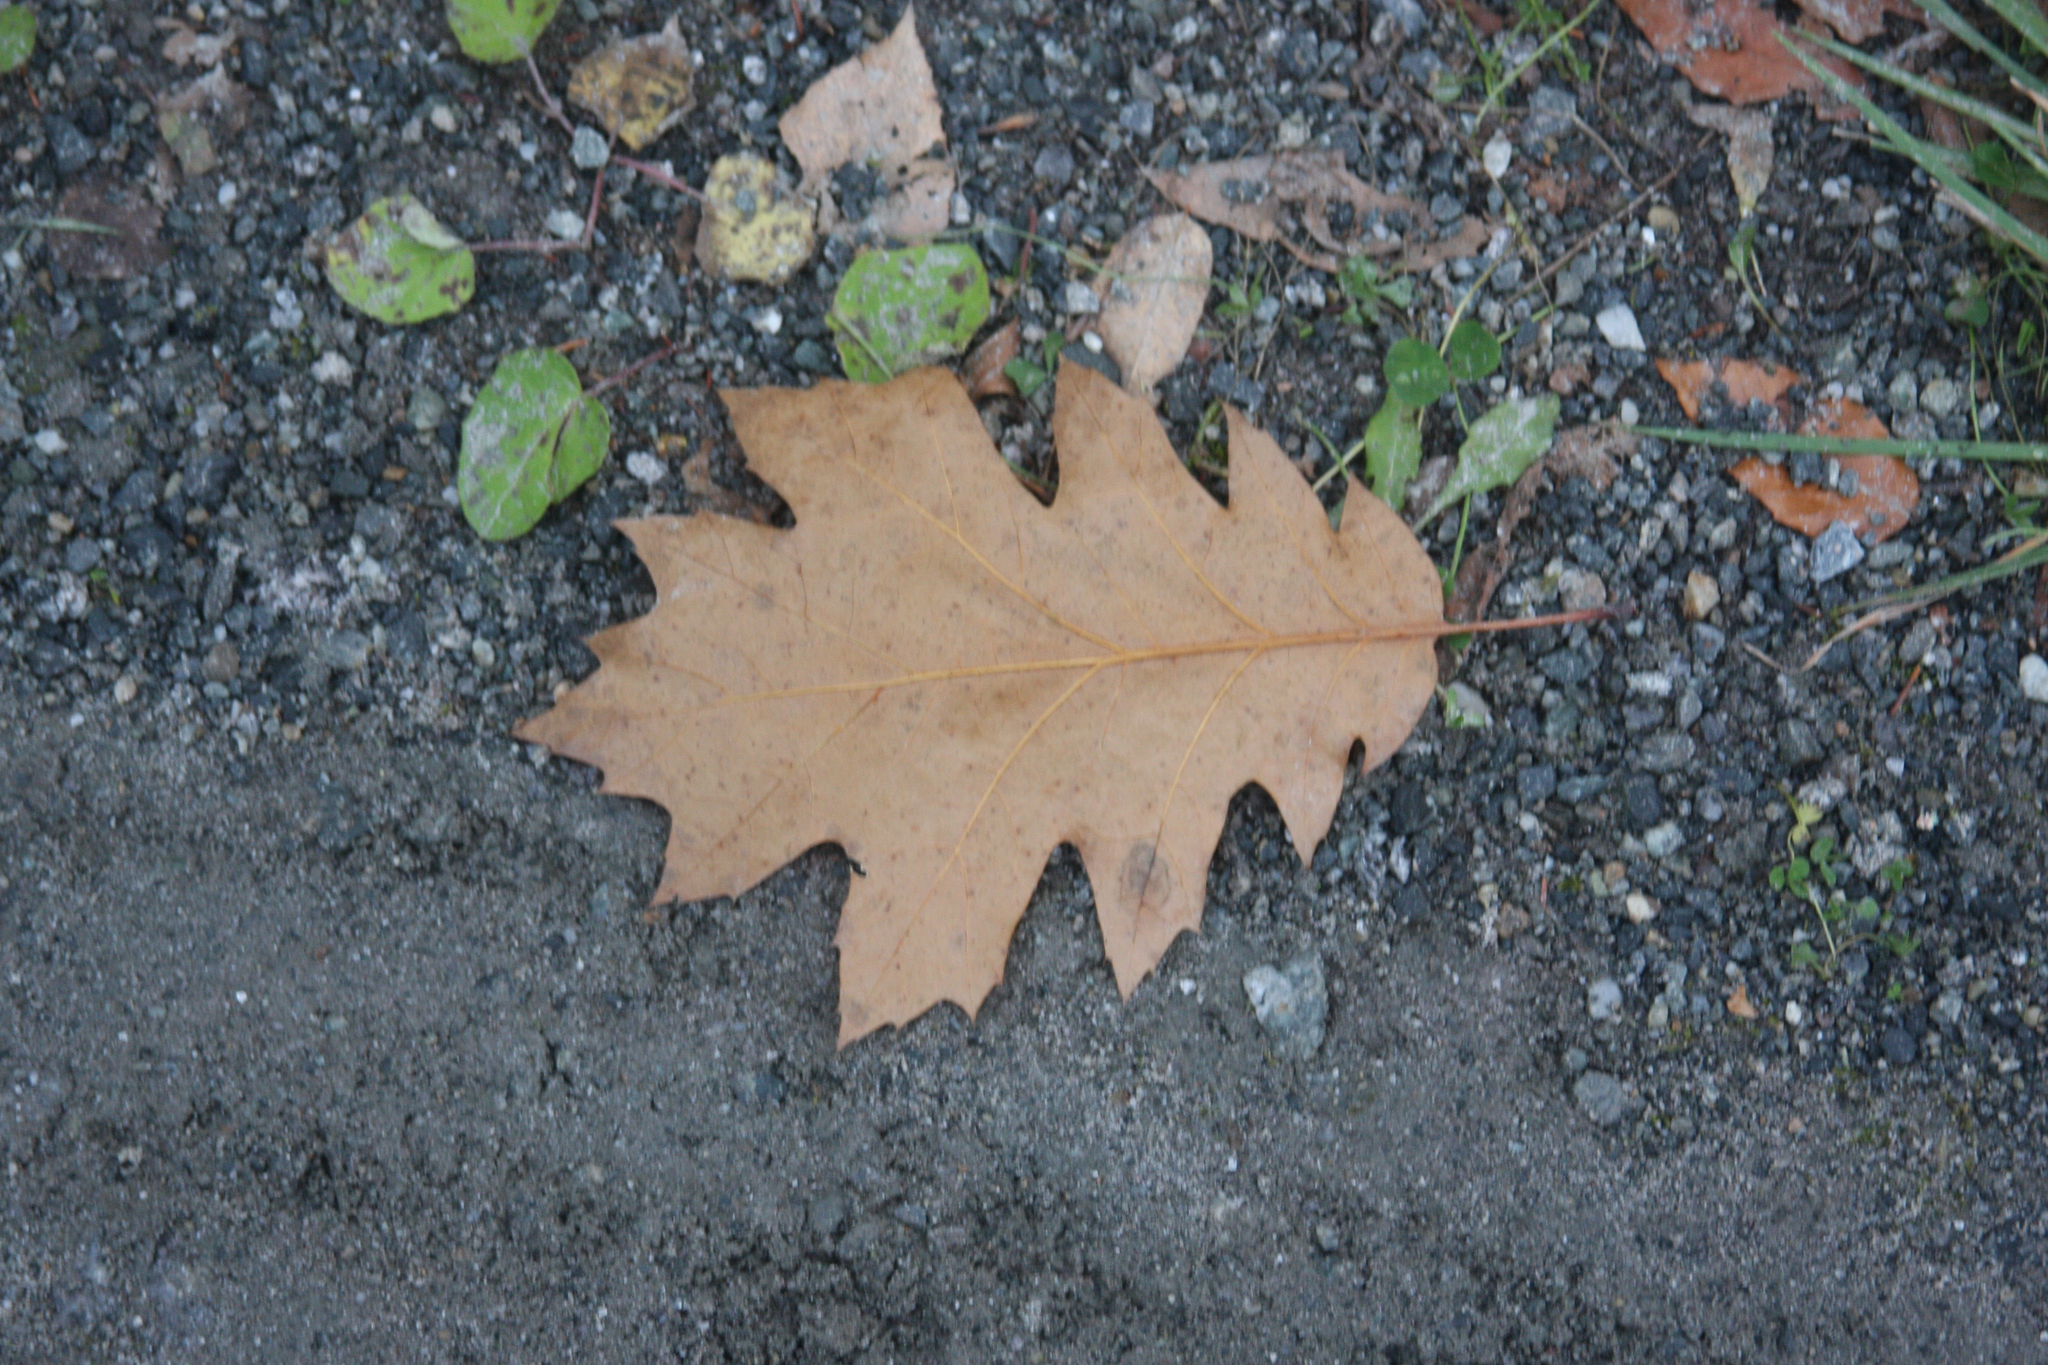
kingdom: Plantae
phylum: Tracheophyta
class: Magnoliopsida
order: Fagales
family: Fagaceae
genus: Quercus
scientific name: Quercus rubra
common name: Red oak
